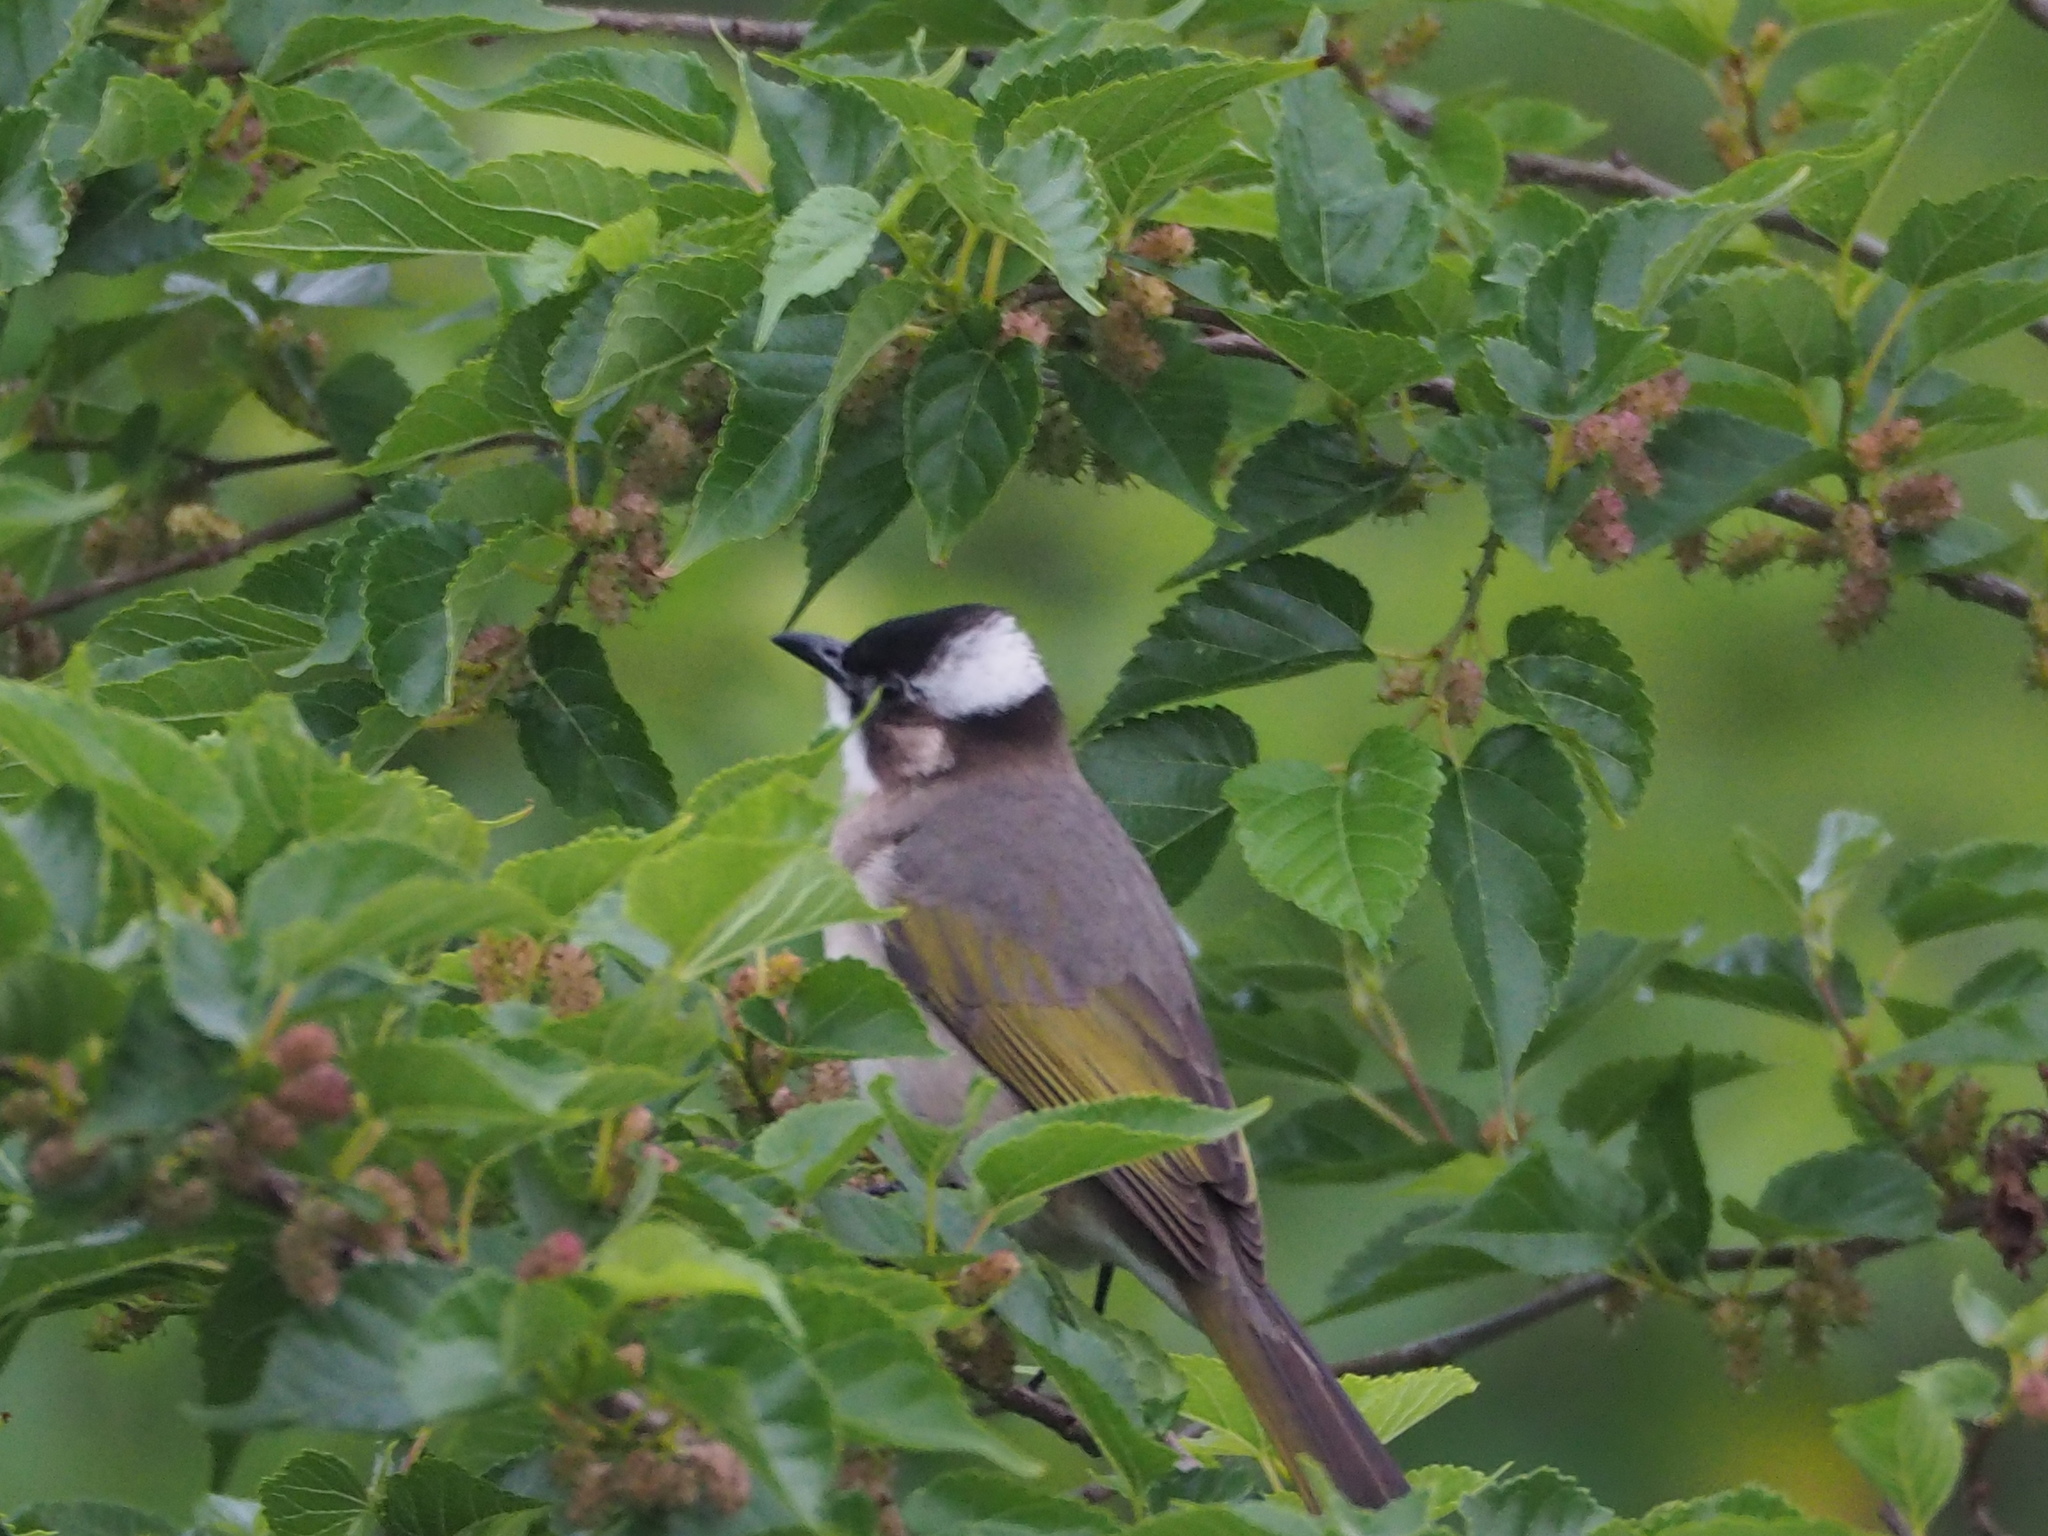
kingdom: Animalia
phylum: Chordata
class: Aves
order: Passeriformes
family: Pycnonotidae
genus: Pycnonotus
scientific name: Pycnonotus sinensis
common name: Light-vented bulbul
